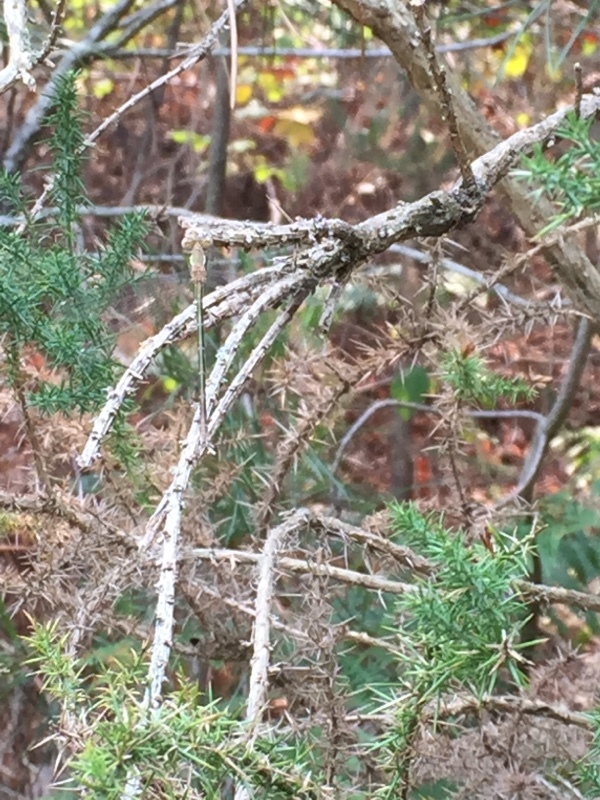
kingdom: Animalia
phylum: Arthropoda
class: Insecta
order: Odonata
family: Lestidae
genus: Lestes
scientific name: Lestes barbarus
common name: Migrant spreadwing
